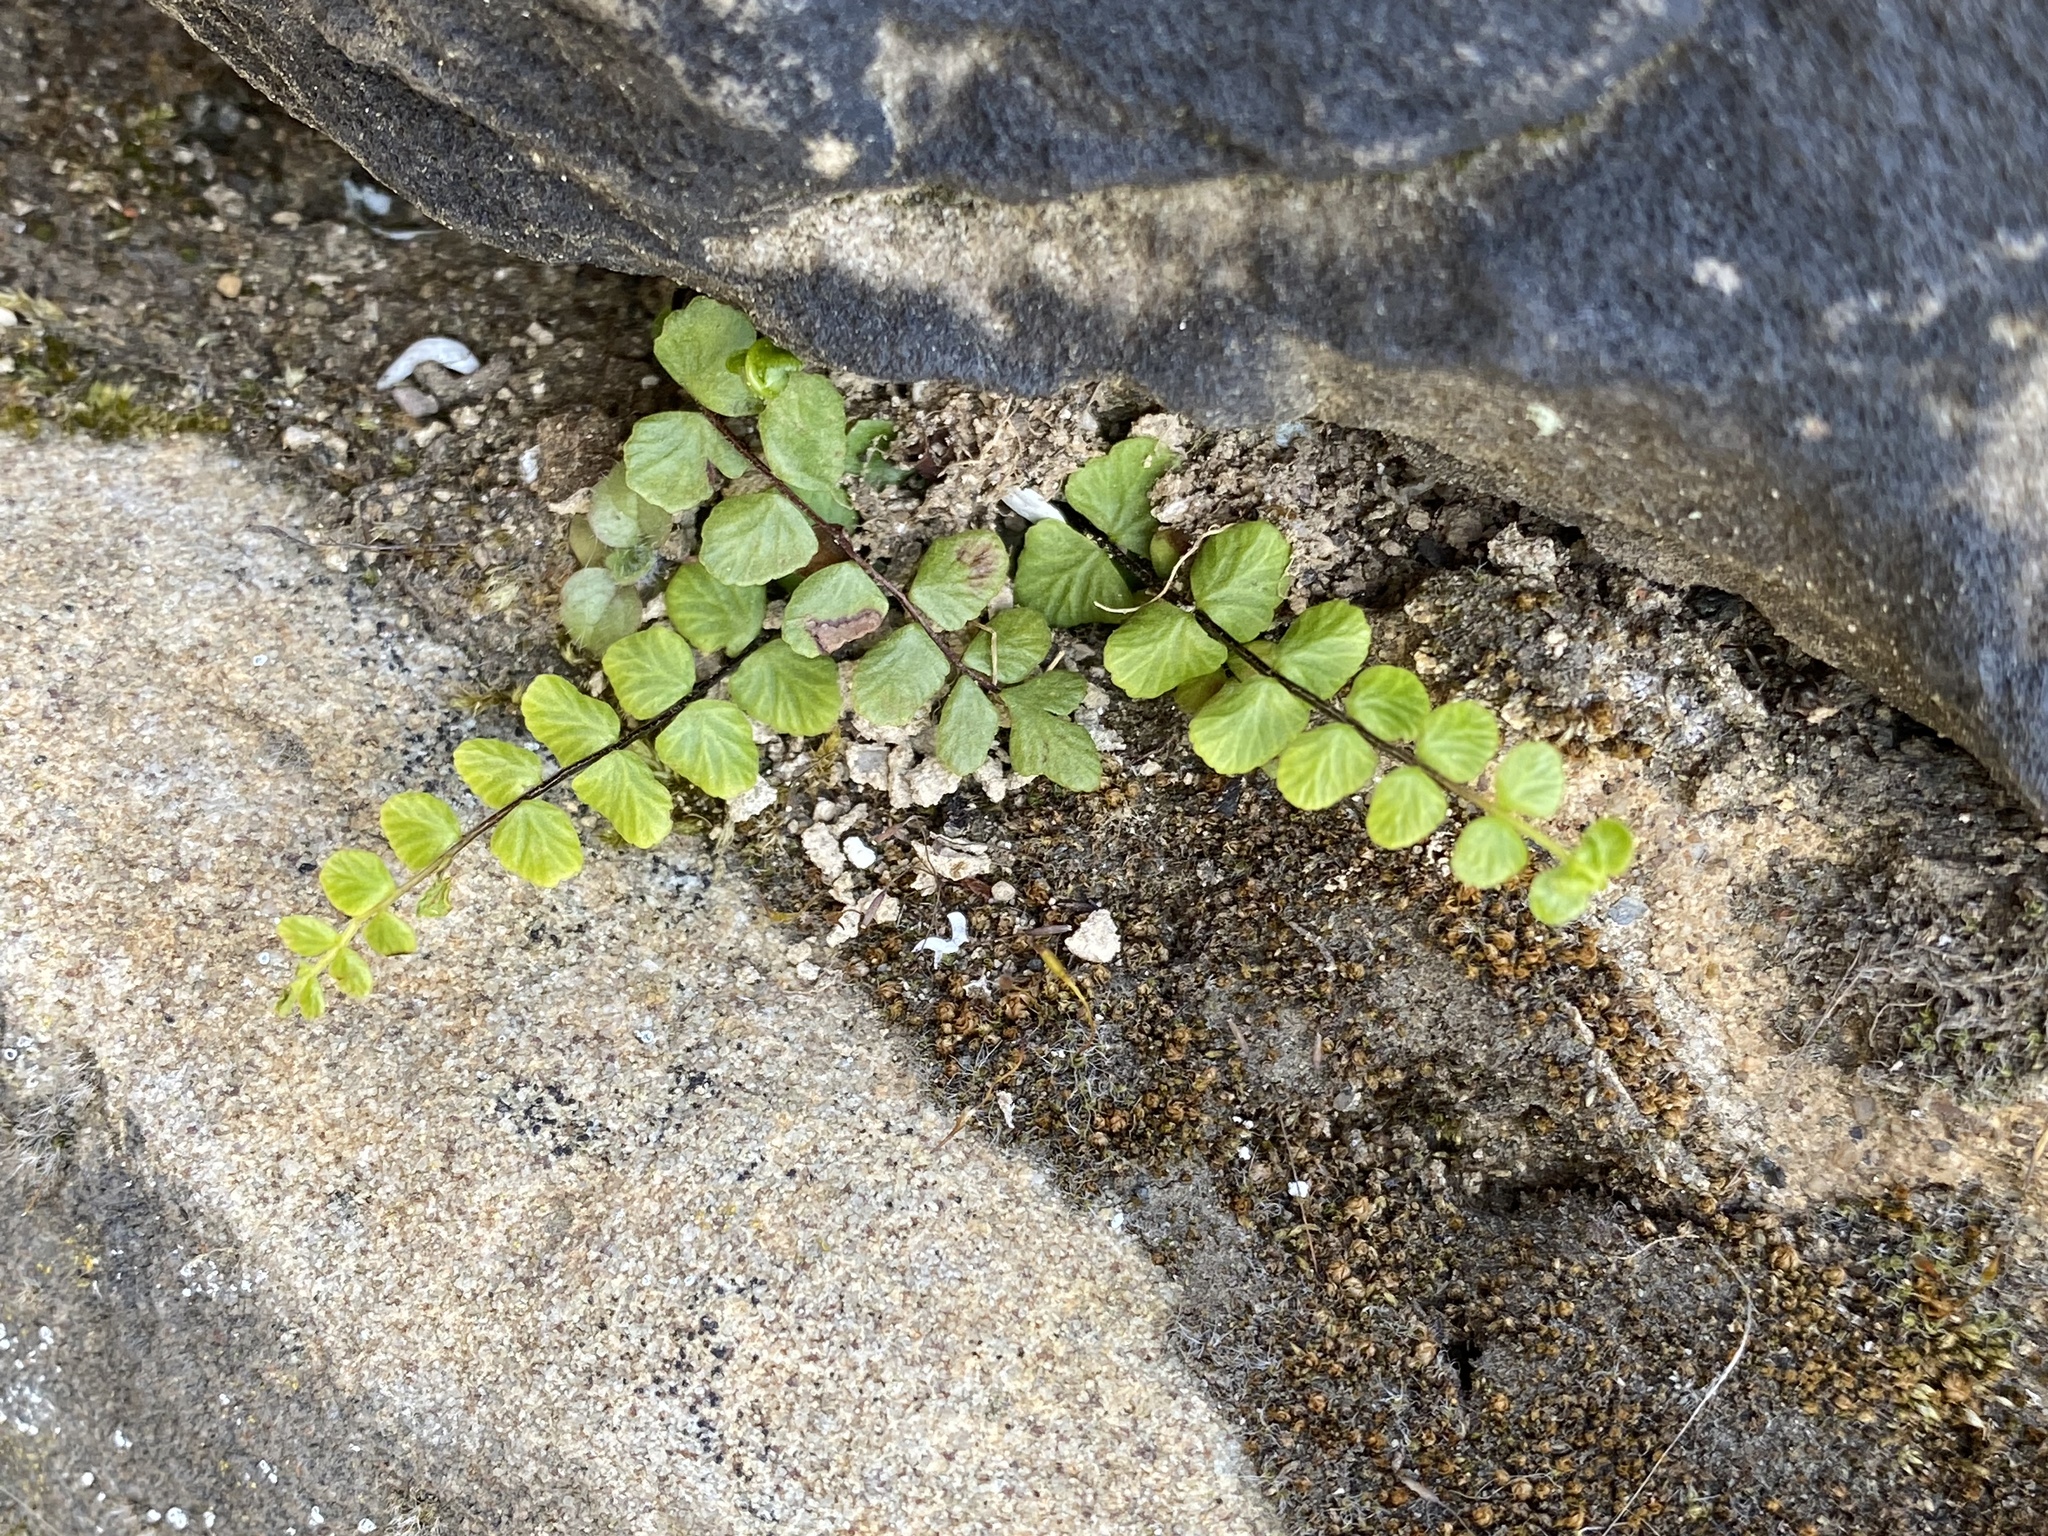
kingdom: Plantae
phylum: Tracheophyta
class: Polypodiopsida
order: Polypodiales
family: Aspleniaceae
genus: Asplenium
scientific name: Asplenium trichomanes
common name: Maidenhair spleenwort
